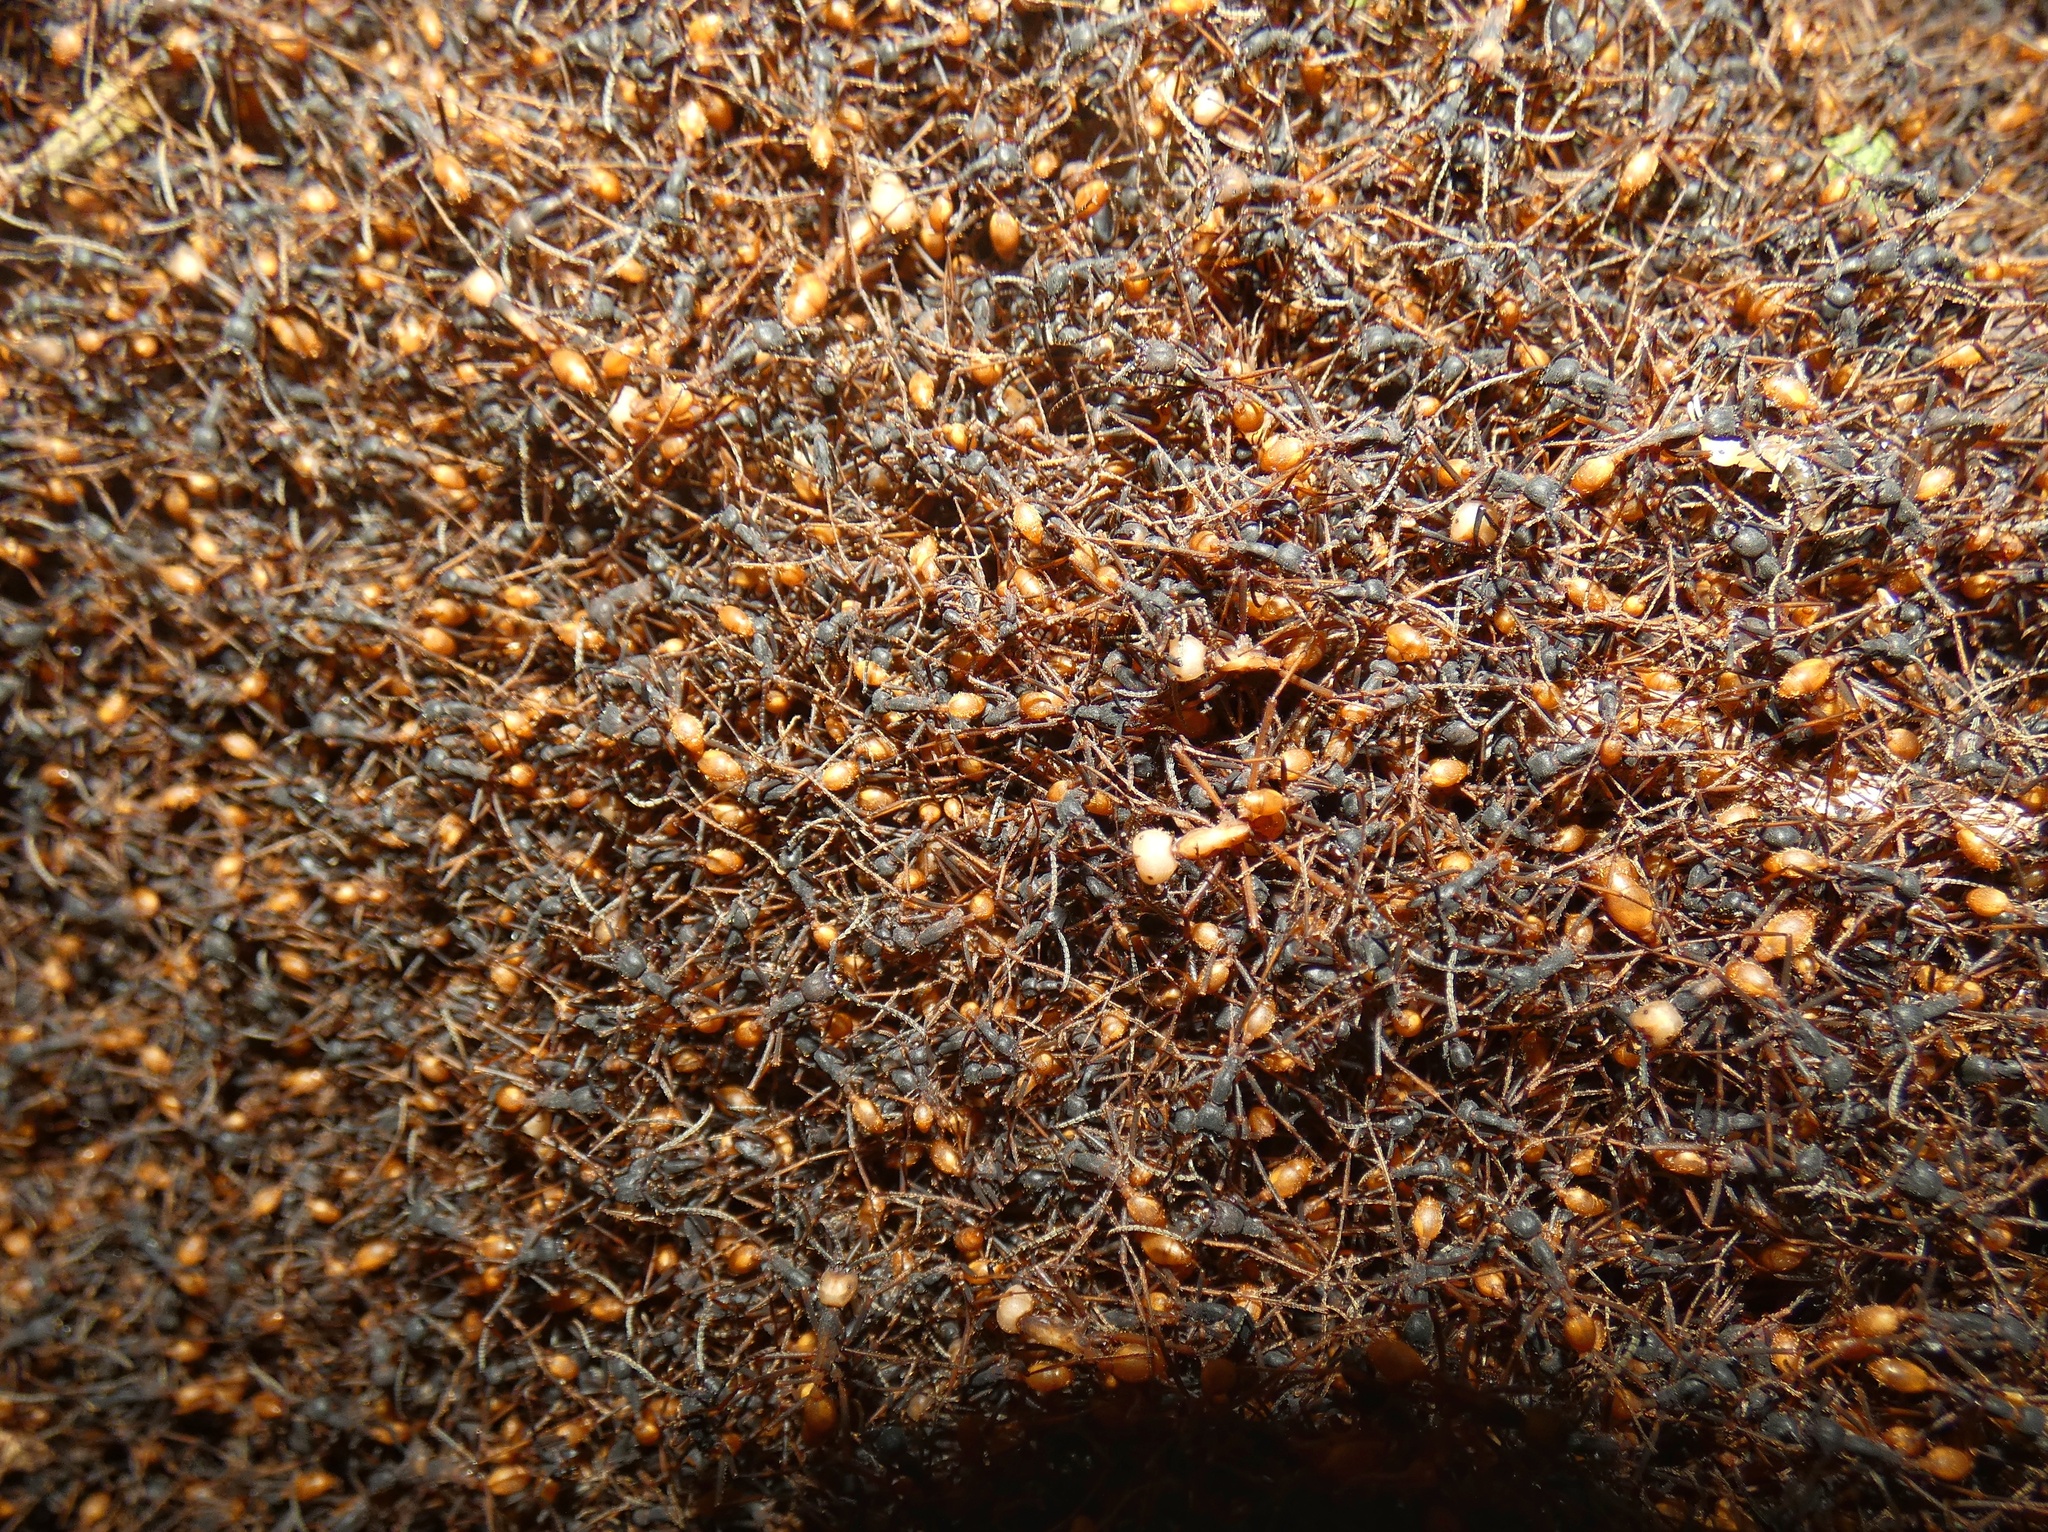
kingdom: Animalia
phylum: Arthropoda
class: Insecta
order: Hymenoptera
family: Formicidae
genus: Eciton
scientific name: Eciton burchellii
